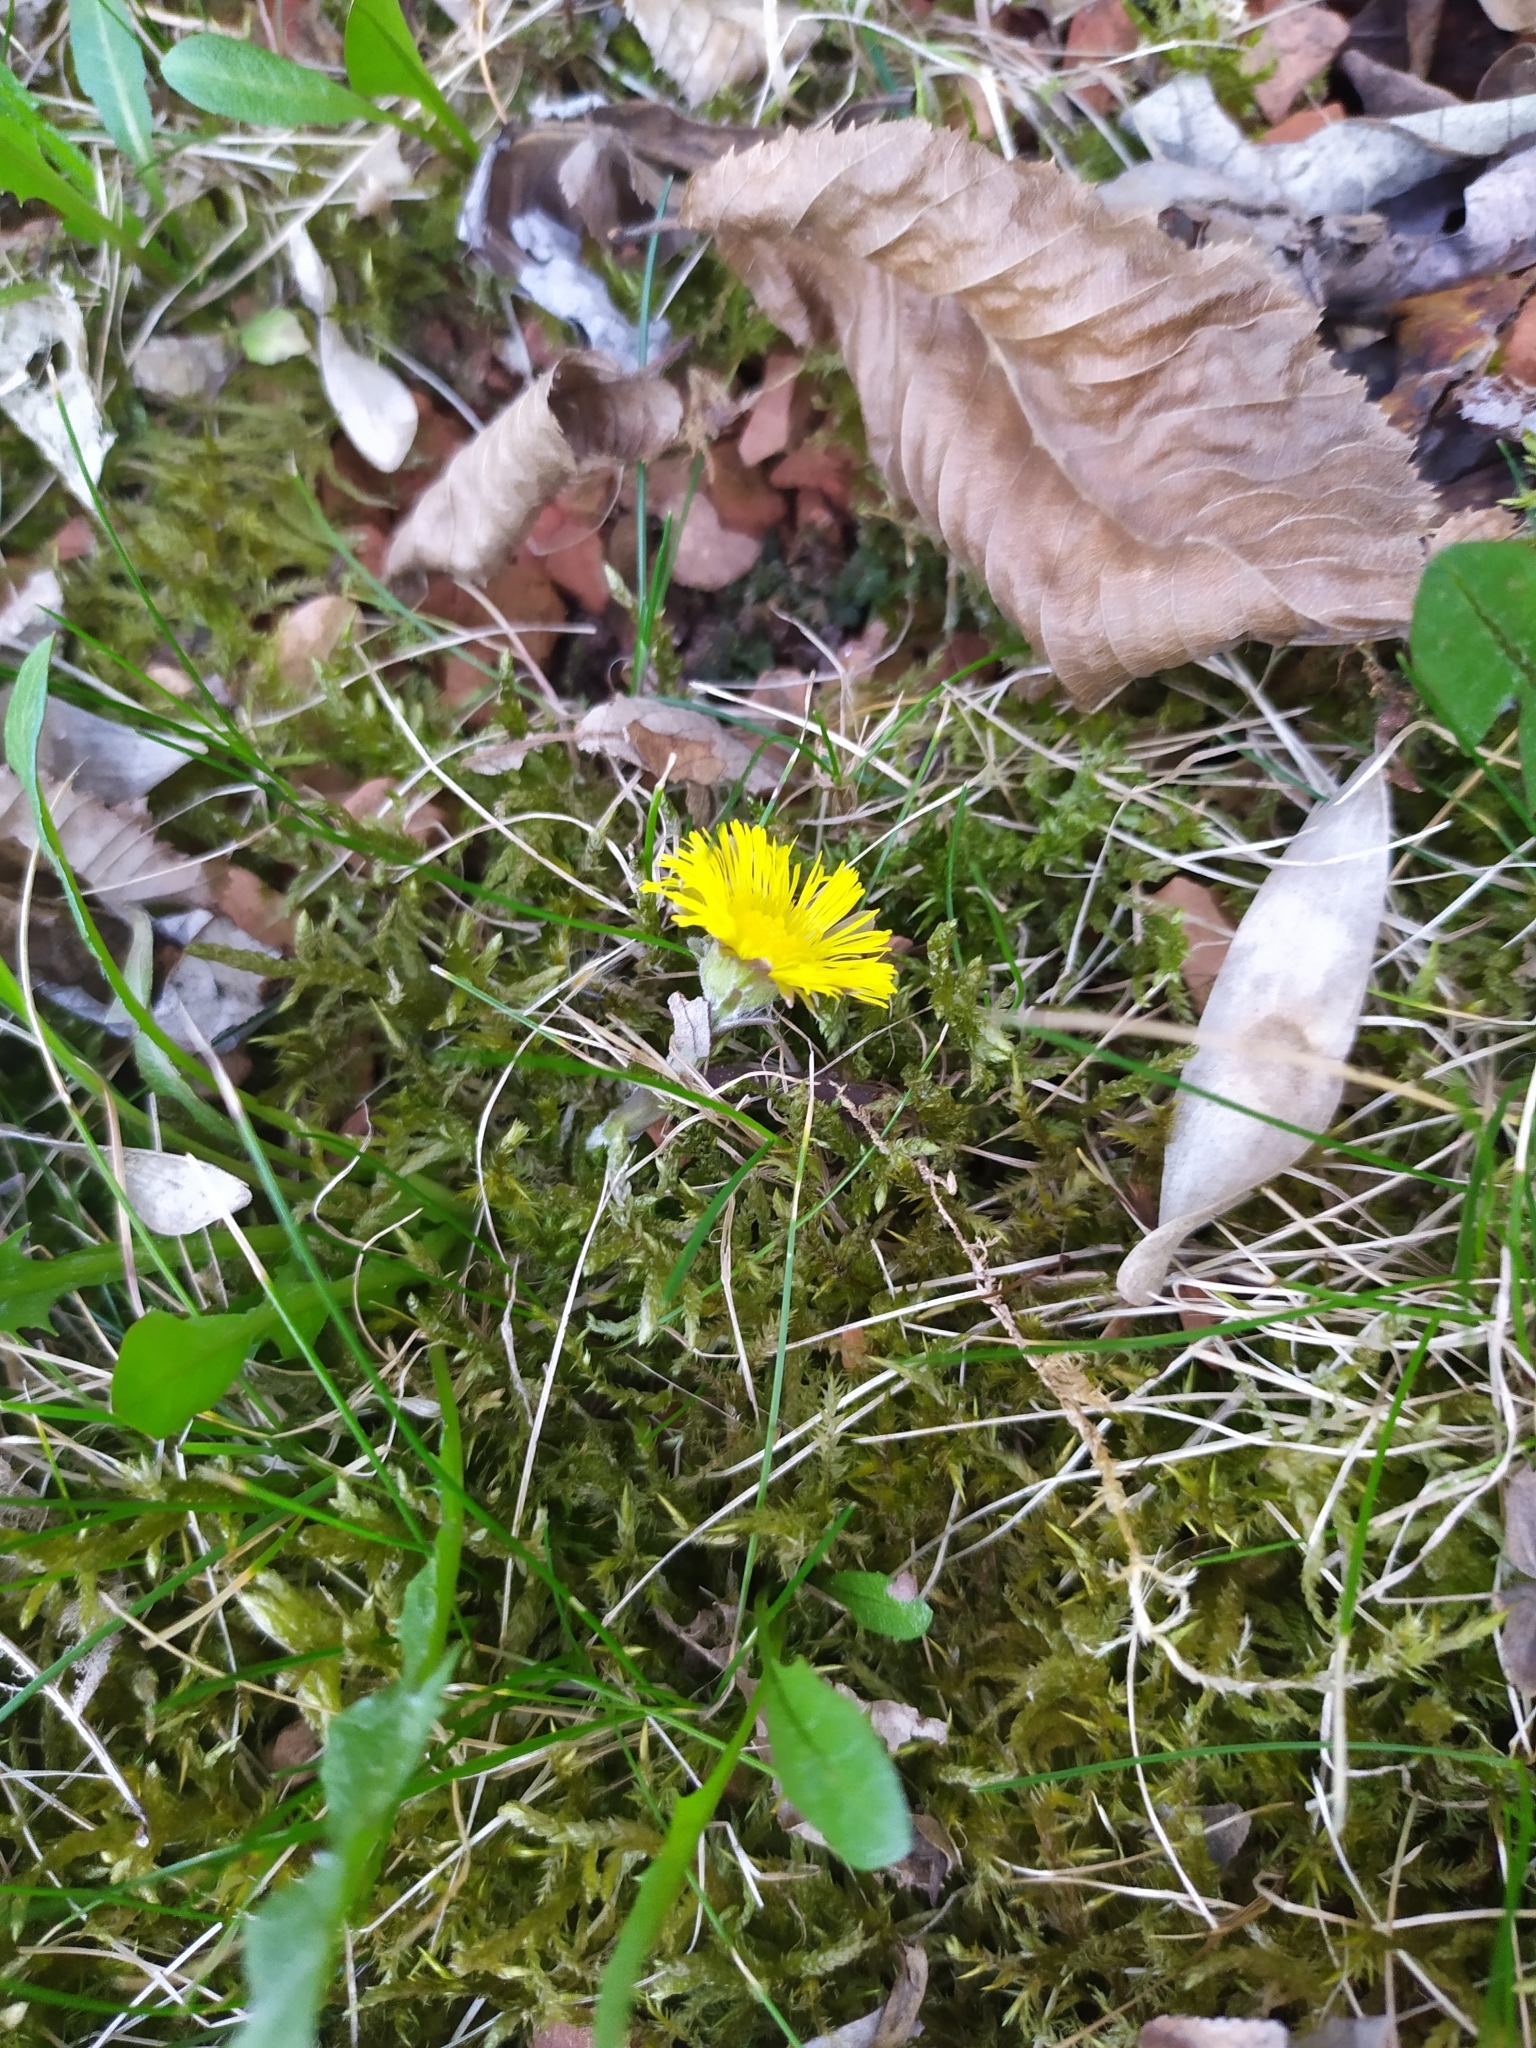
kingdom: Plantae
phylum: Tracheophyta
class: Magnoliopsida
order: Asterales
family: Asteraceae
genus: Tussilago
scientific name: Tussilago farfara
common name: Coltsfoot
